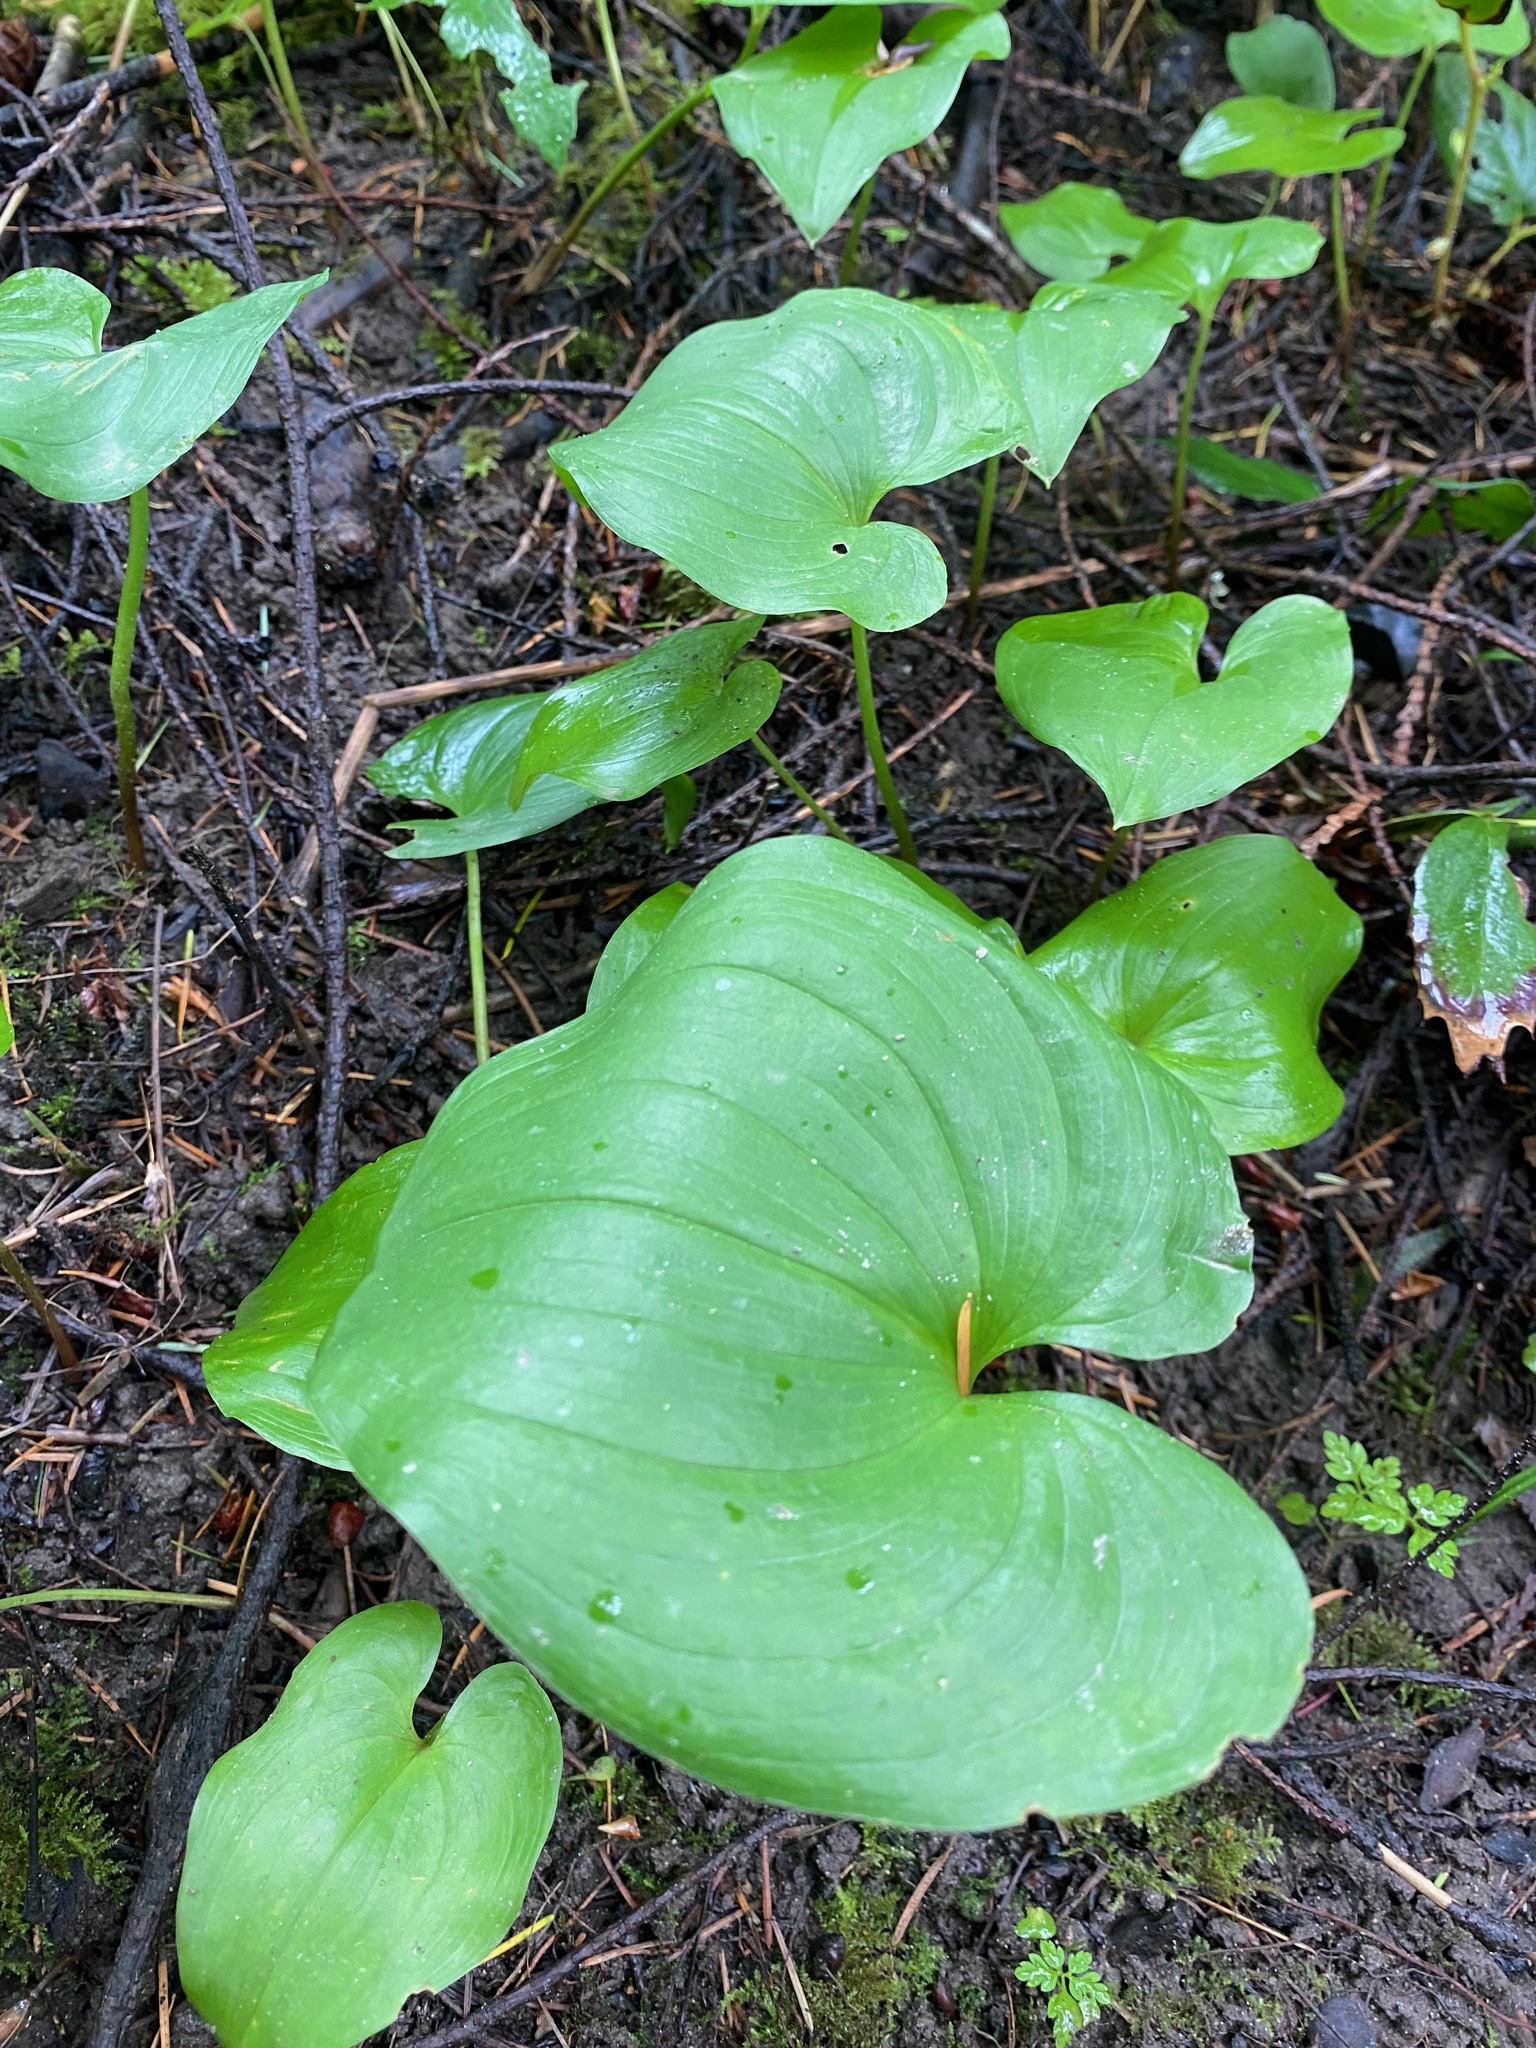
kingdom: Plantae
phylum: Tracheophyta
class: Liliopsida
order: Asparagales
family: Asparagaceae
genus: Maianthemum
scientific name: Maianthemum dilatatum
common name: False lily-of-the-valley
